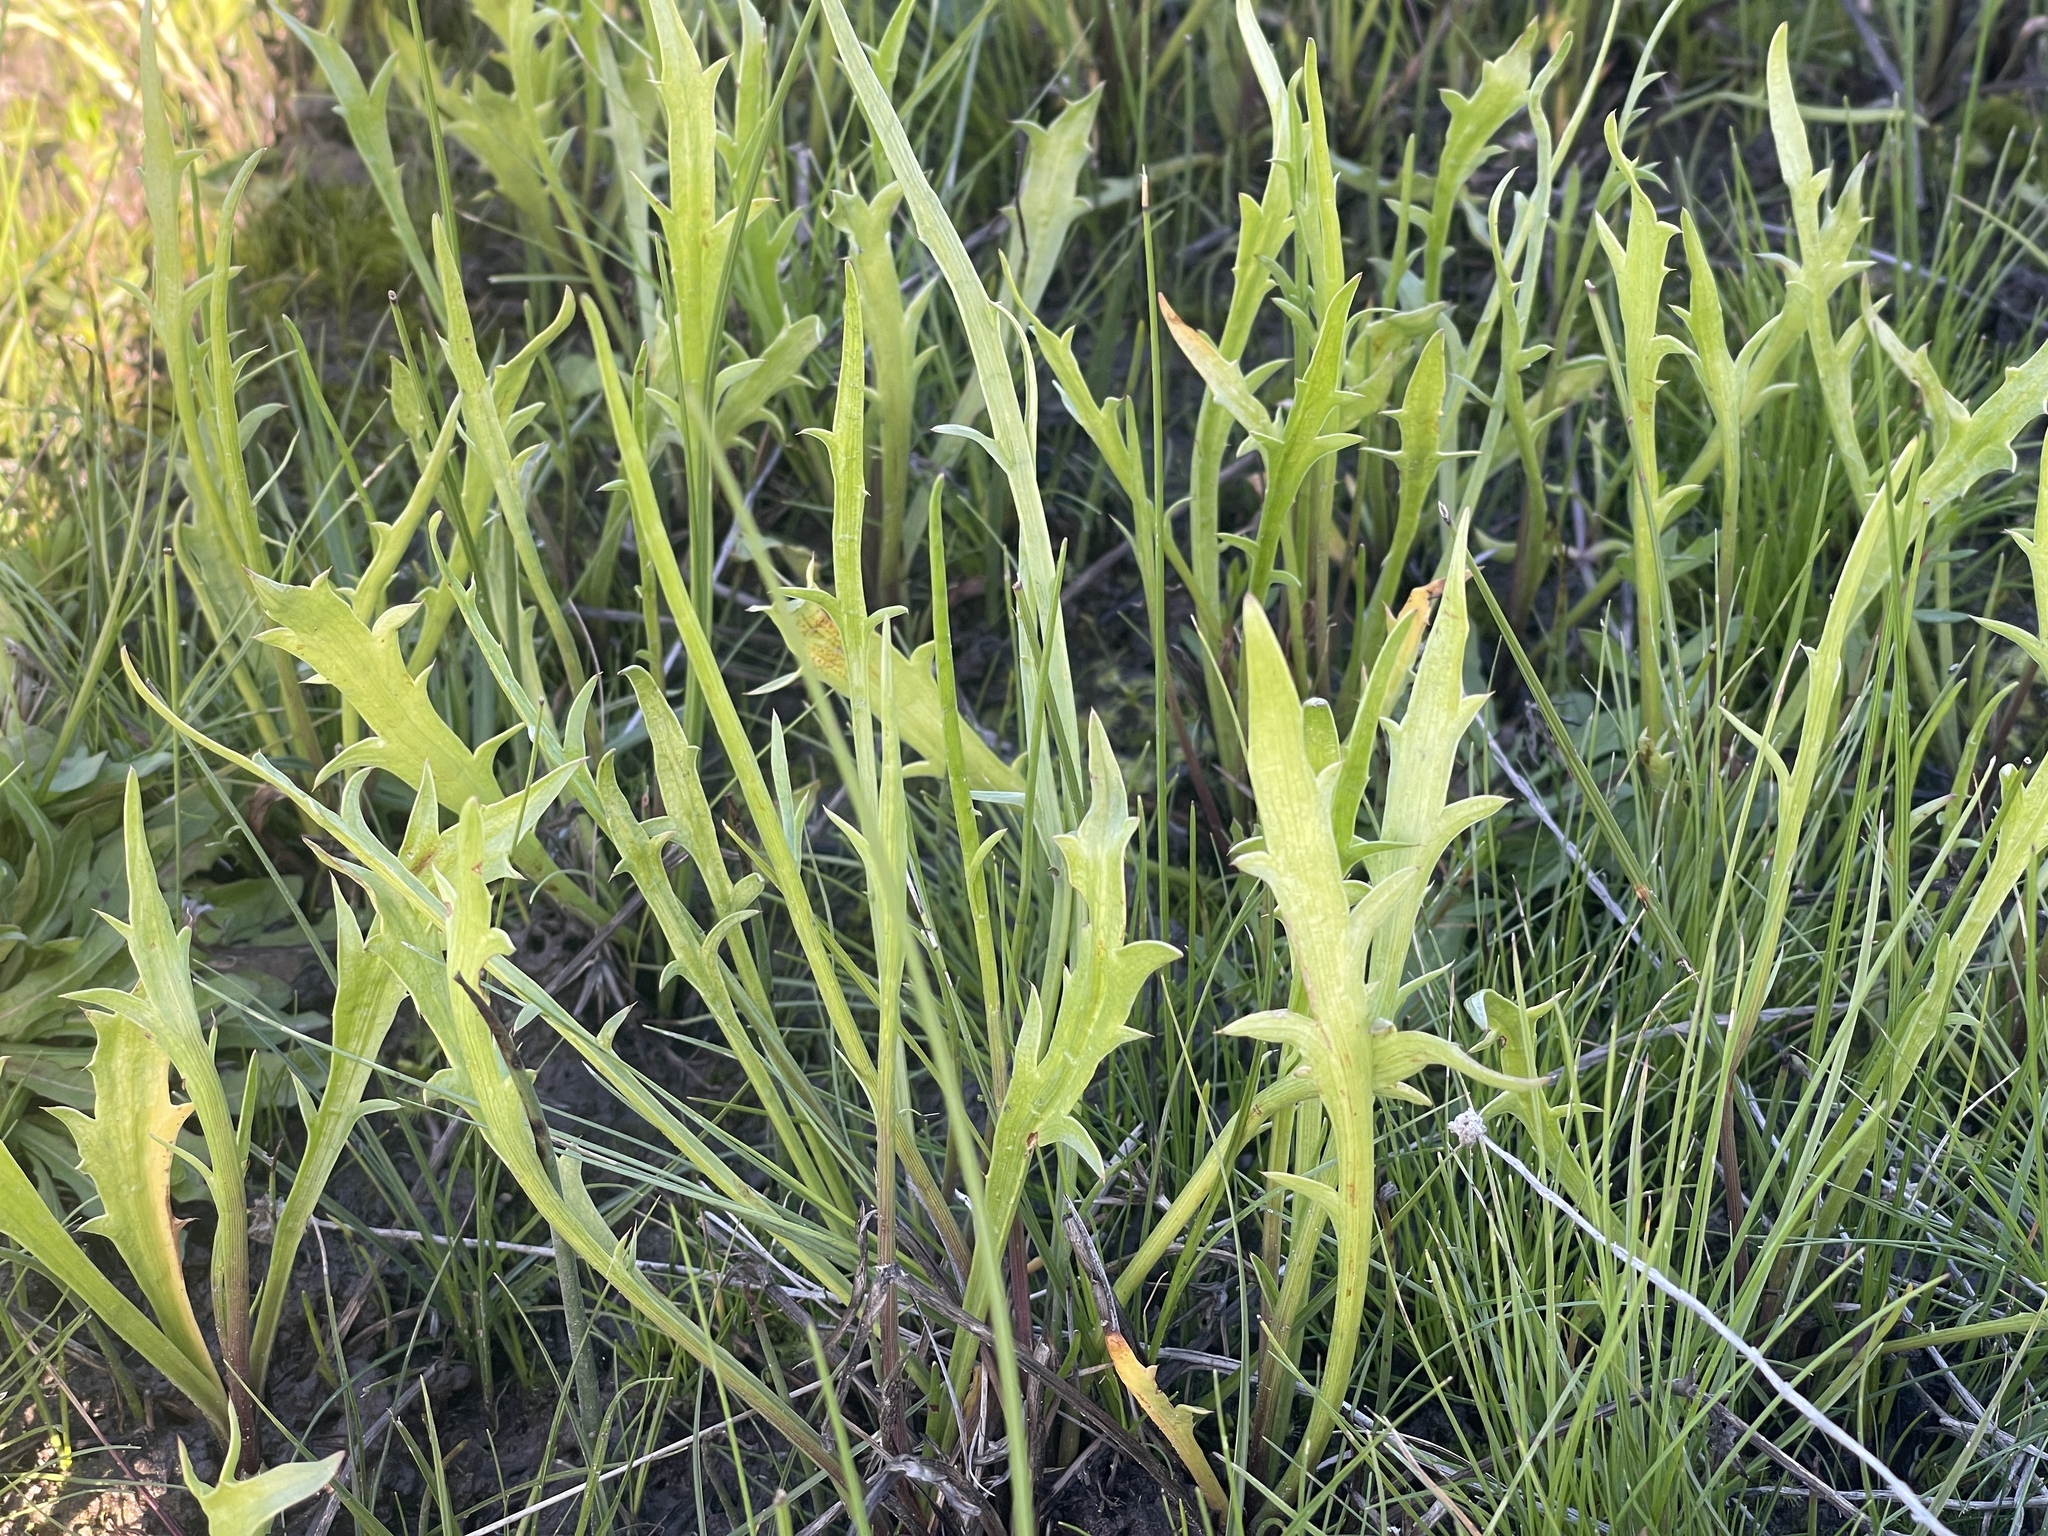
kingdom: Plantae
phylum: Tracheophyta
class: Magnoliopsida
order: Apiales
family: Apiaceae
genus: Eryngium
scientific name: Eryngium vesiculosum
